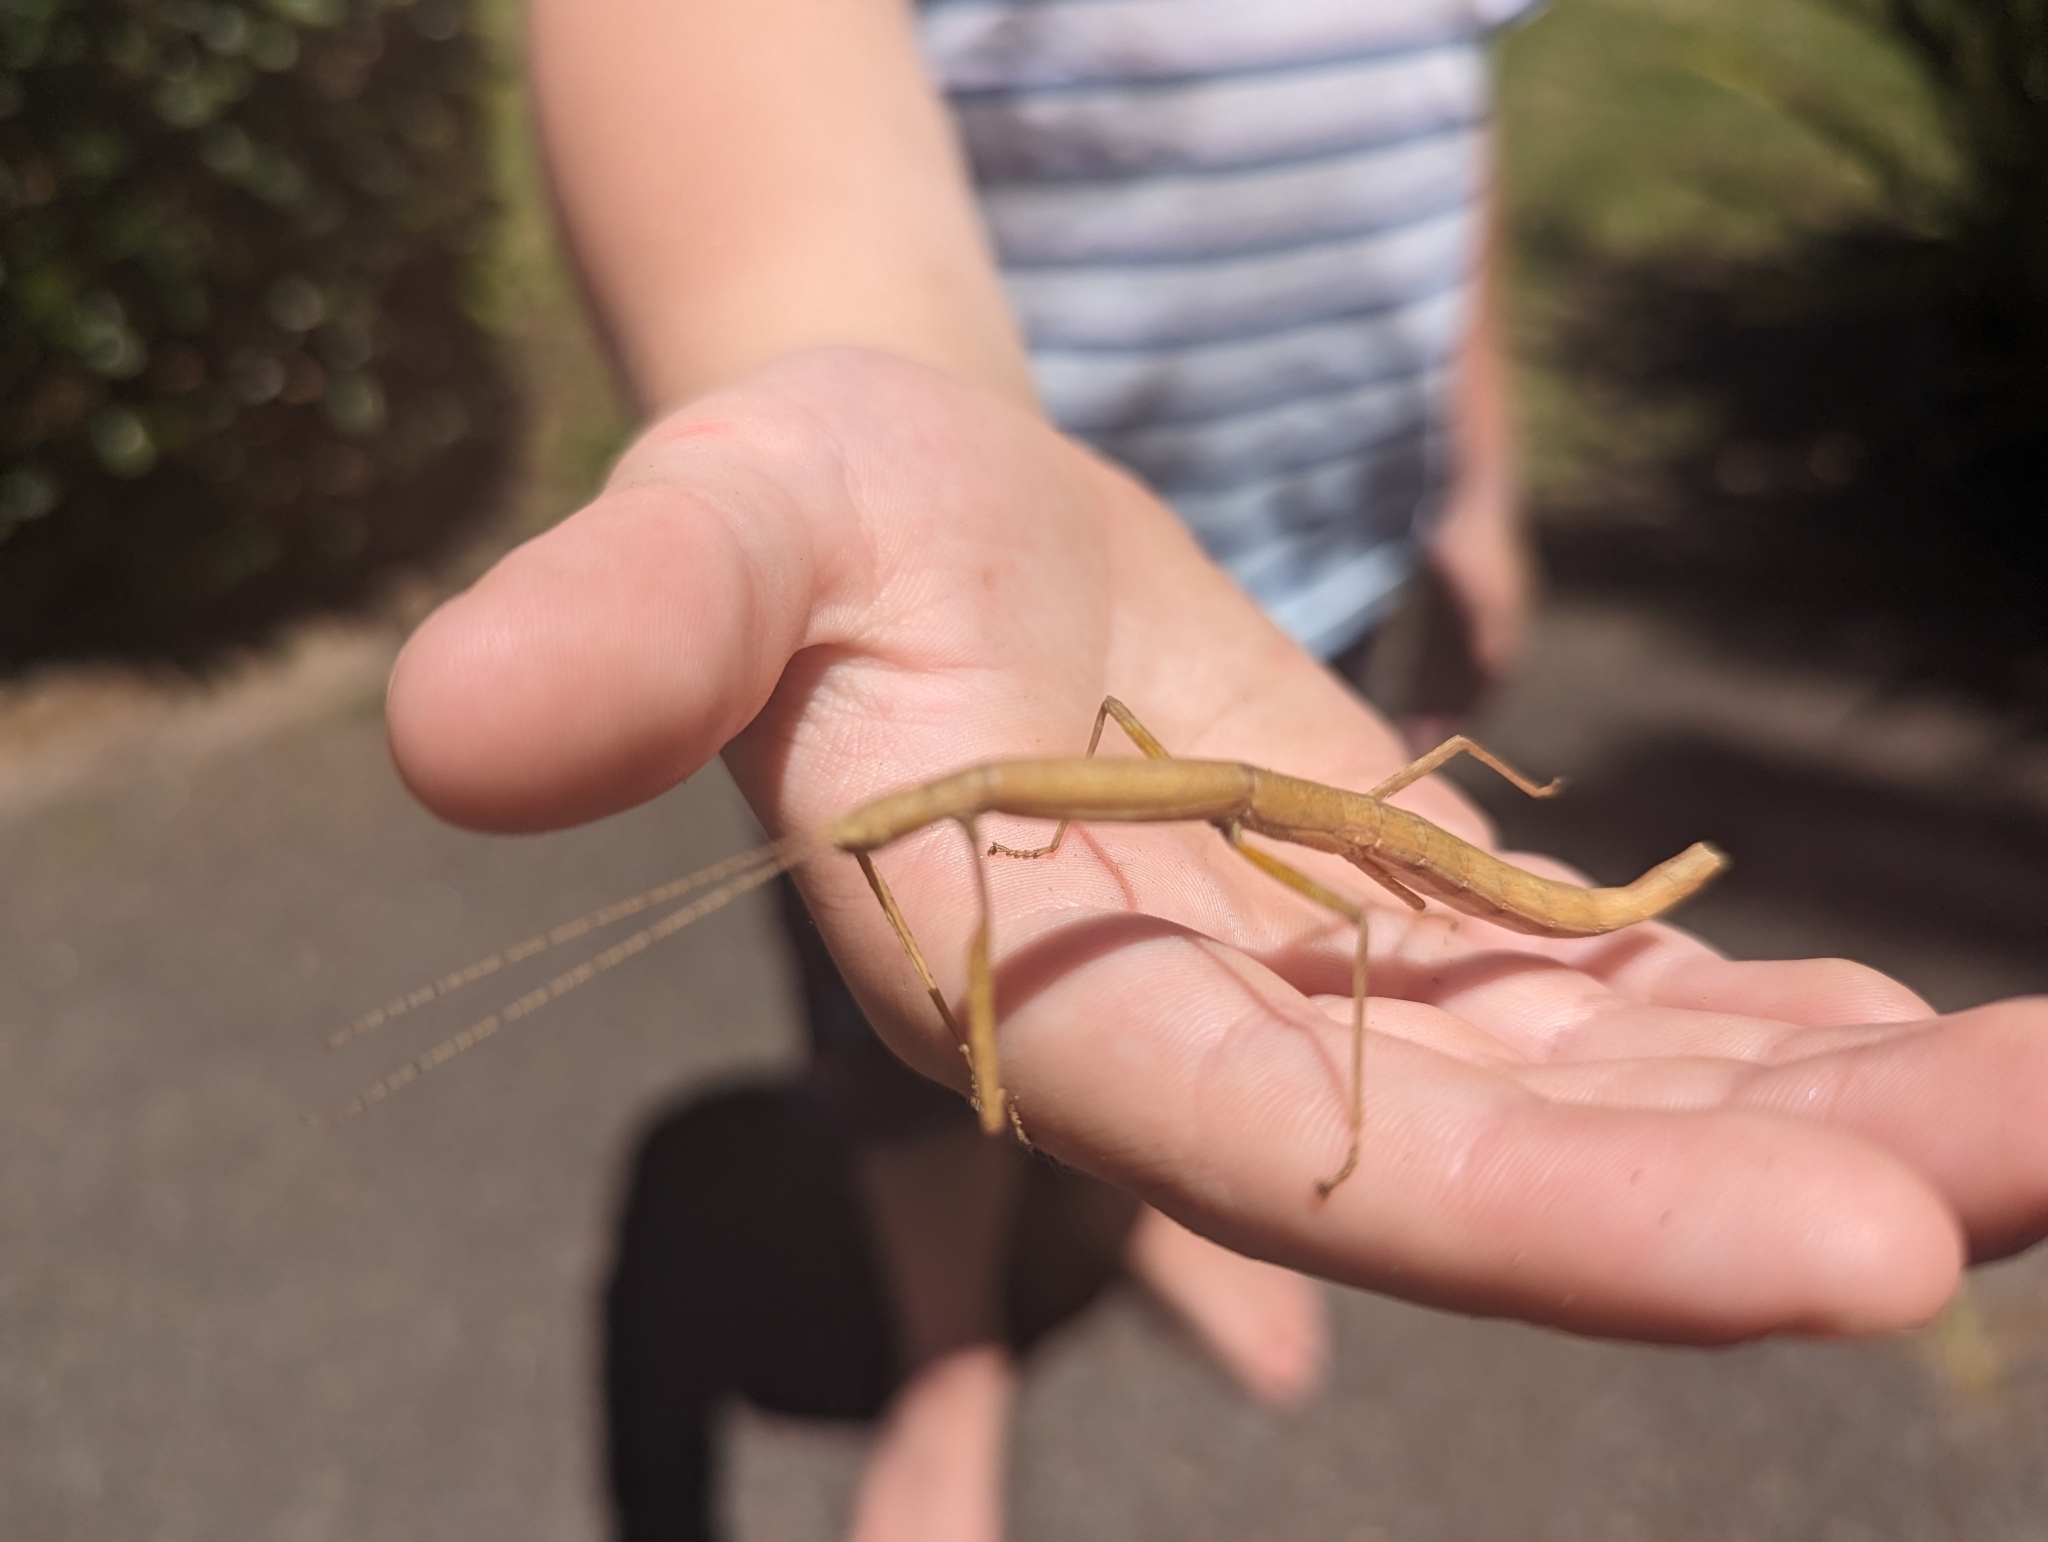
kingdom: Animalia
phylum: Arthropoda
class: Insecta
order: Phasmida
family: Lonchodidae
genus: Carausius
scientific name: Carausius morosus
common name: Indian stick insect
